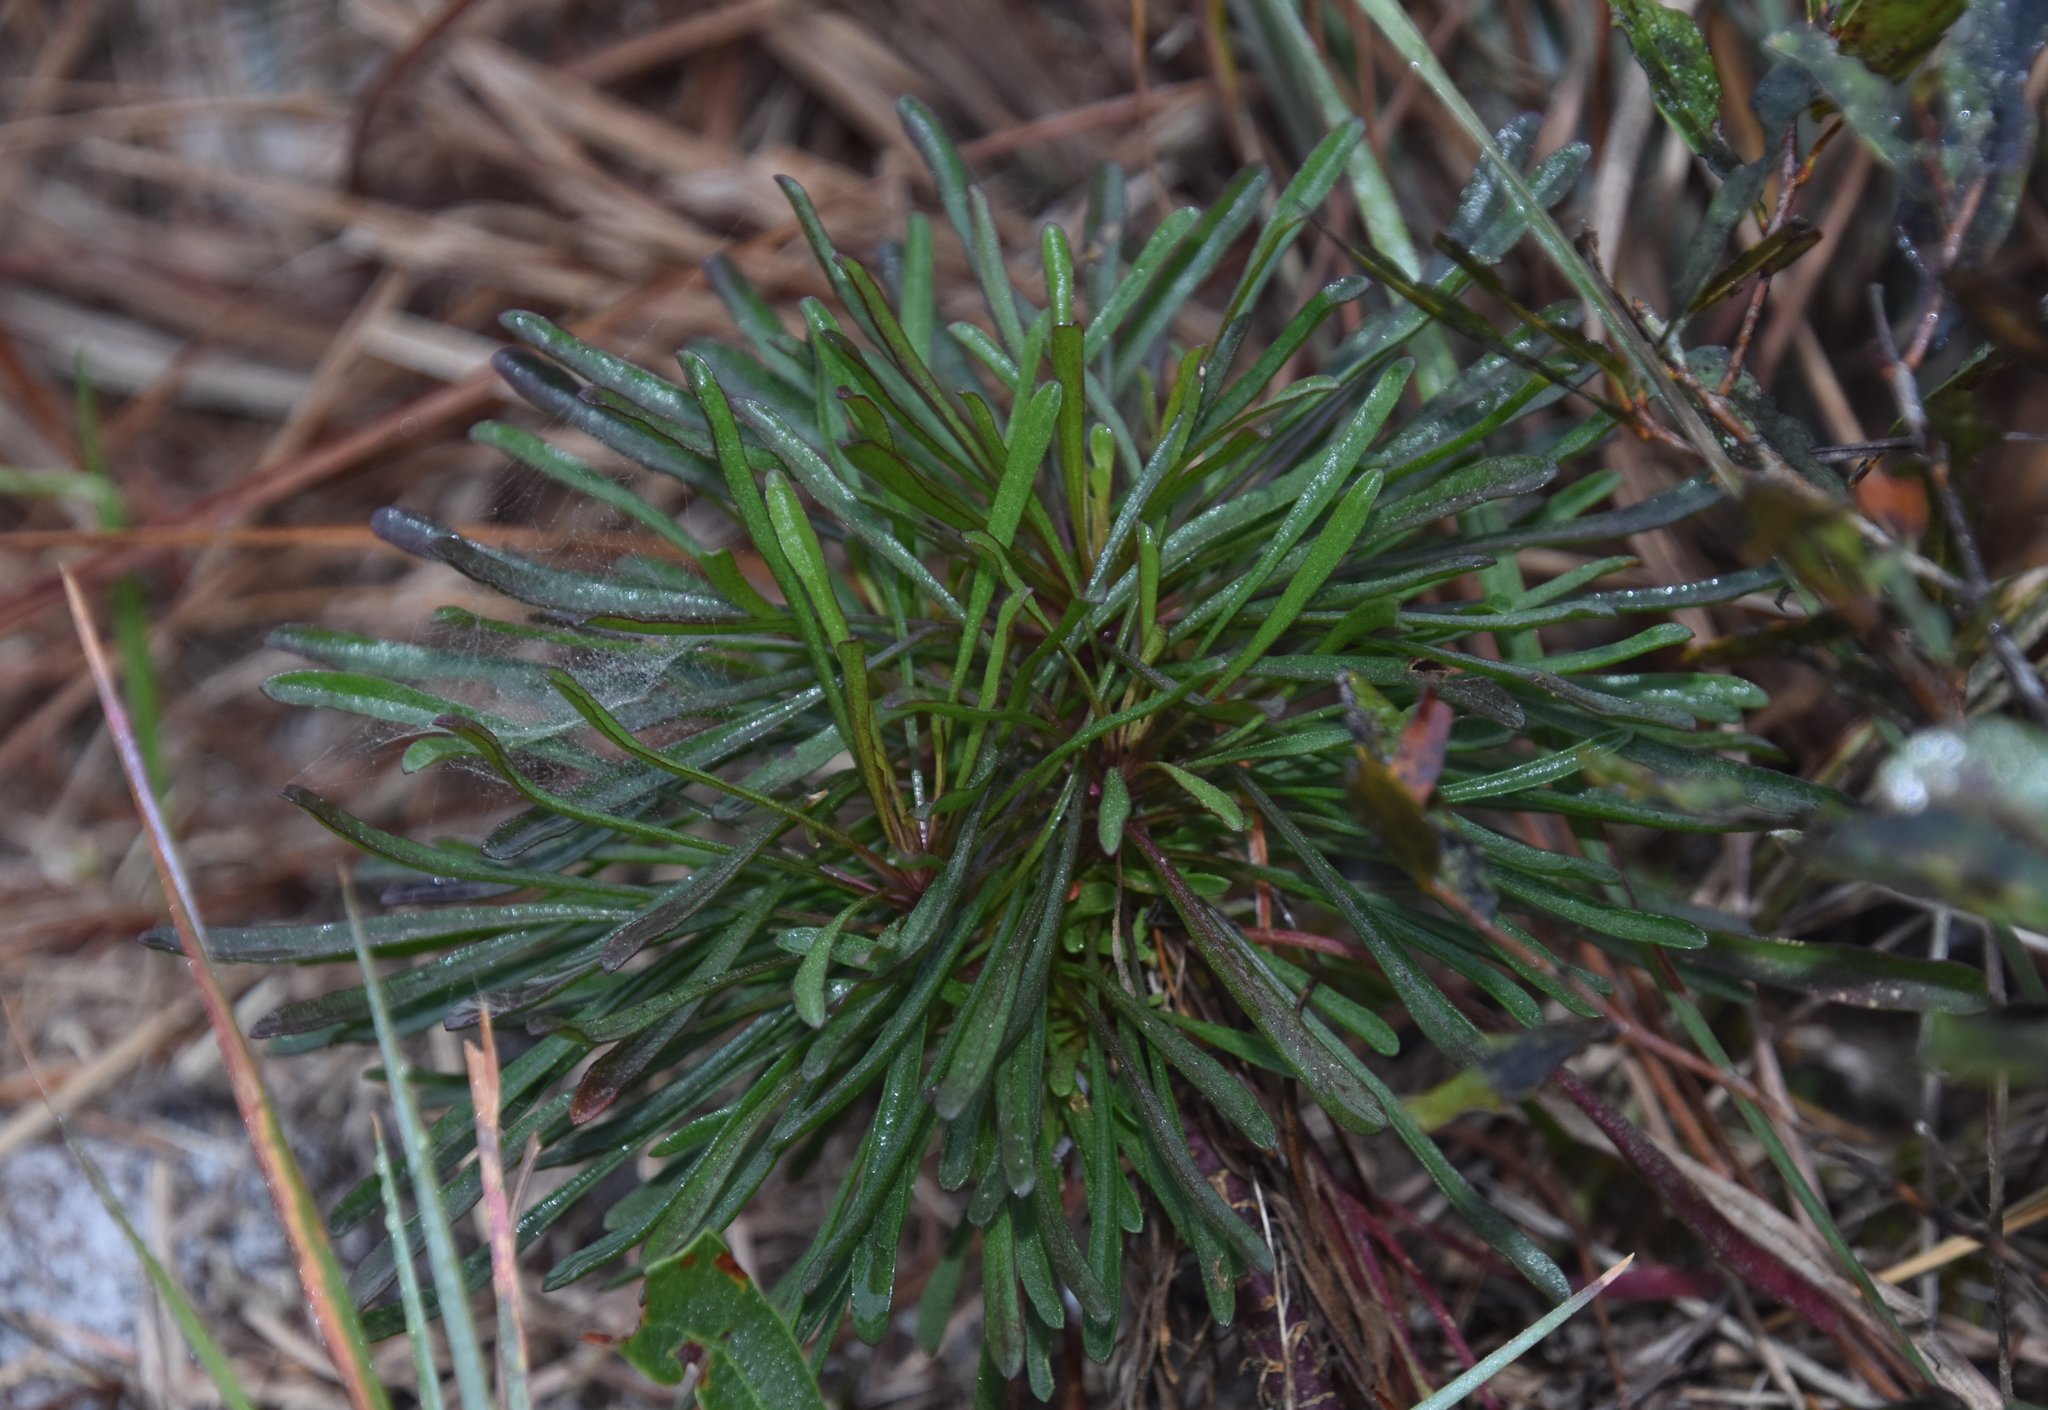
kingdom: Plantae
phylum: Tracheophyta
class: Magnoliopsida
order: Asterales
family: Asteraceae
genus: Balduina
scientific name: Balduina angustifolia
